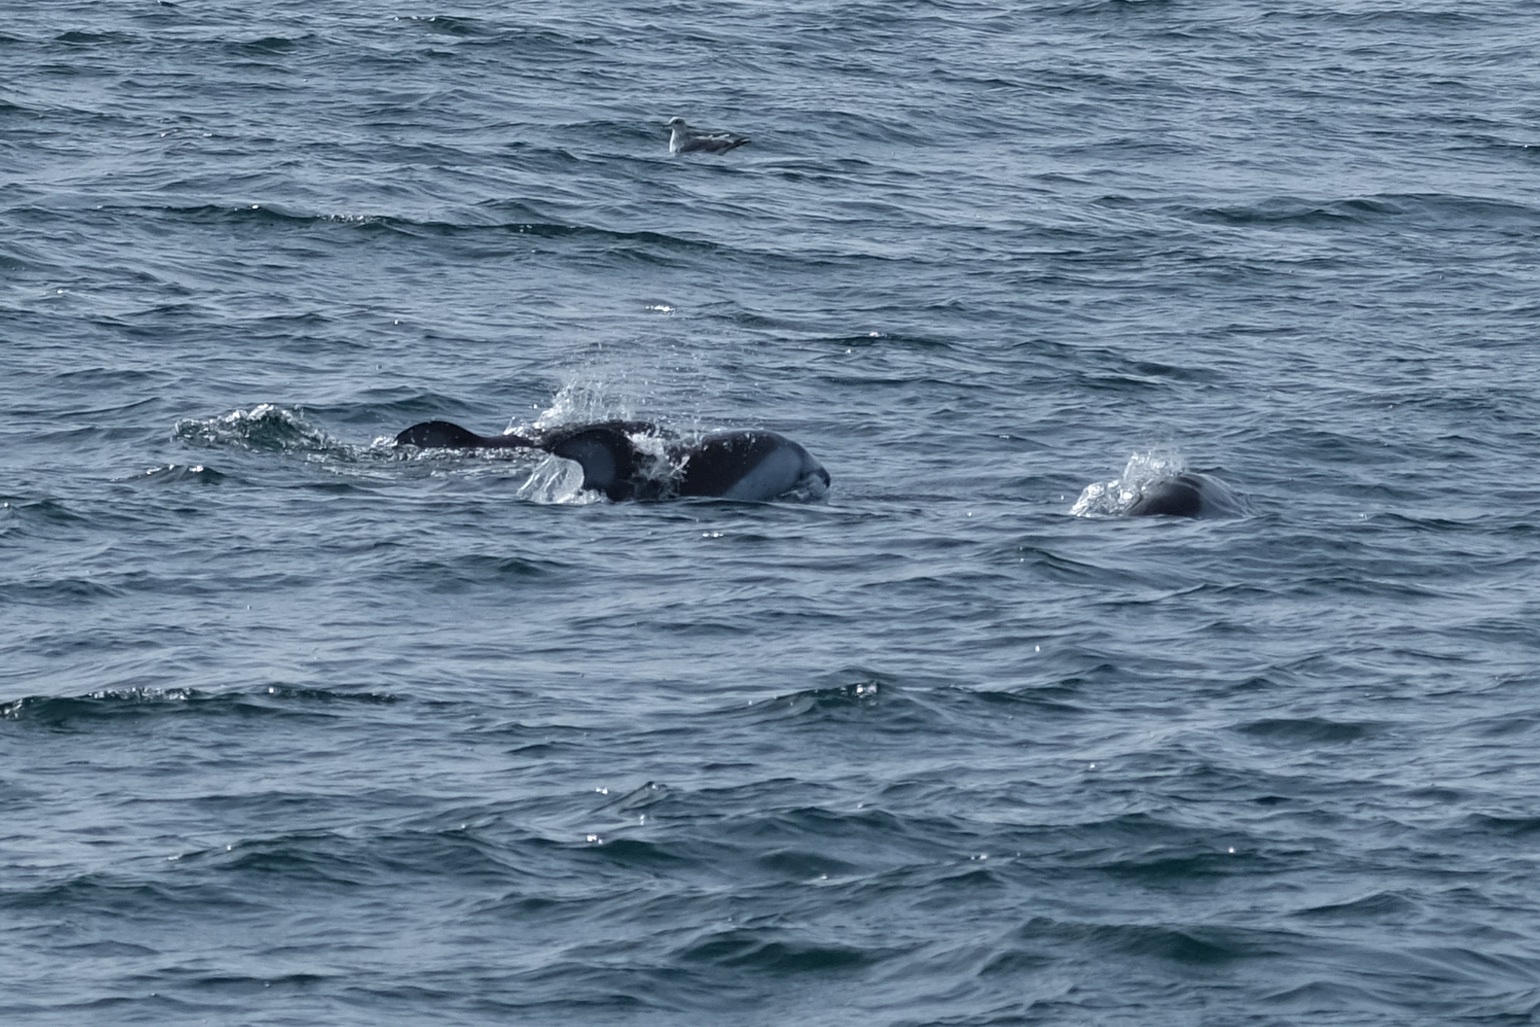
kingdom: Animalia
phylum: Chordata
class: Mammalia
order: Cetacea
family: Delphinidae
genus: Lagenorhynchus
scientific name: Lagenorhynchus obliquidens
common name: Pacific white-sided dolphin
